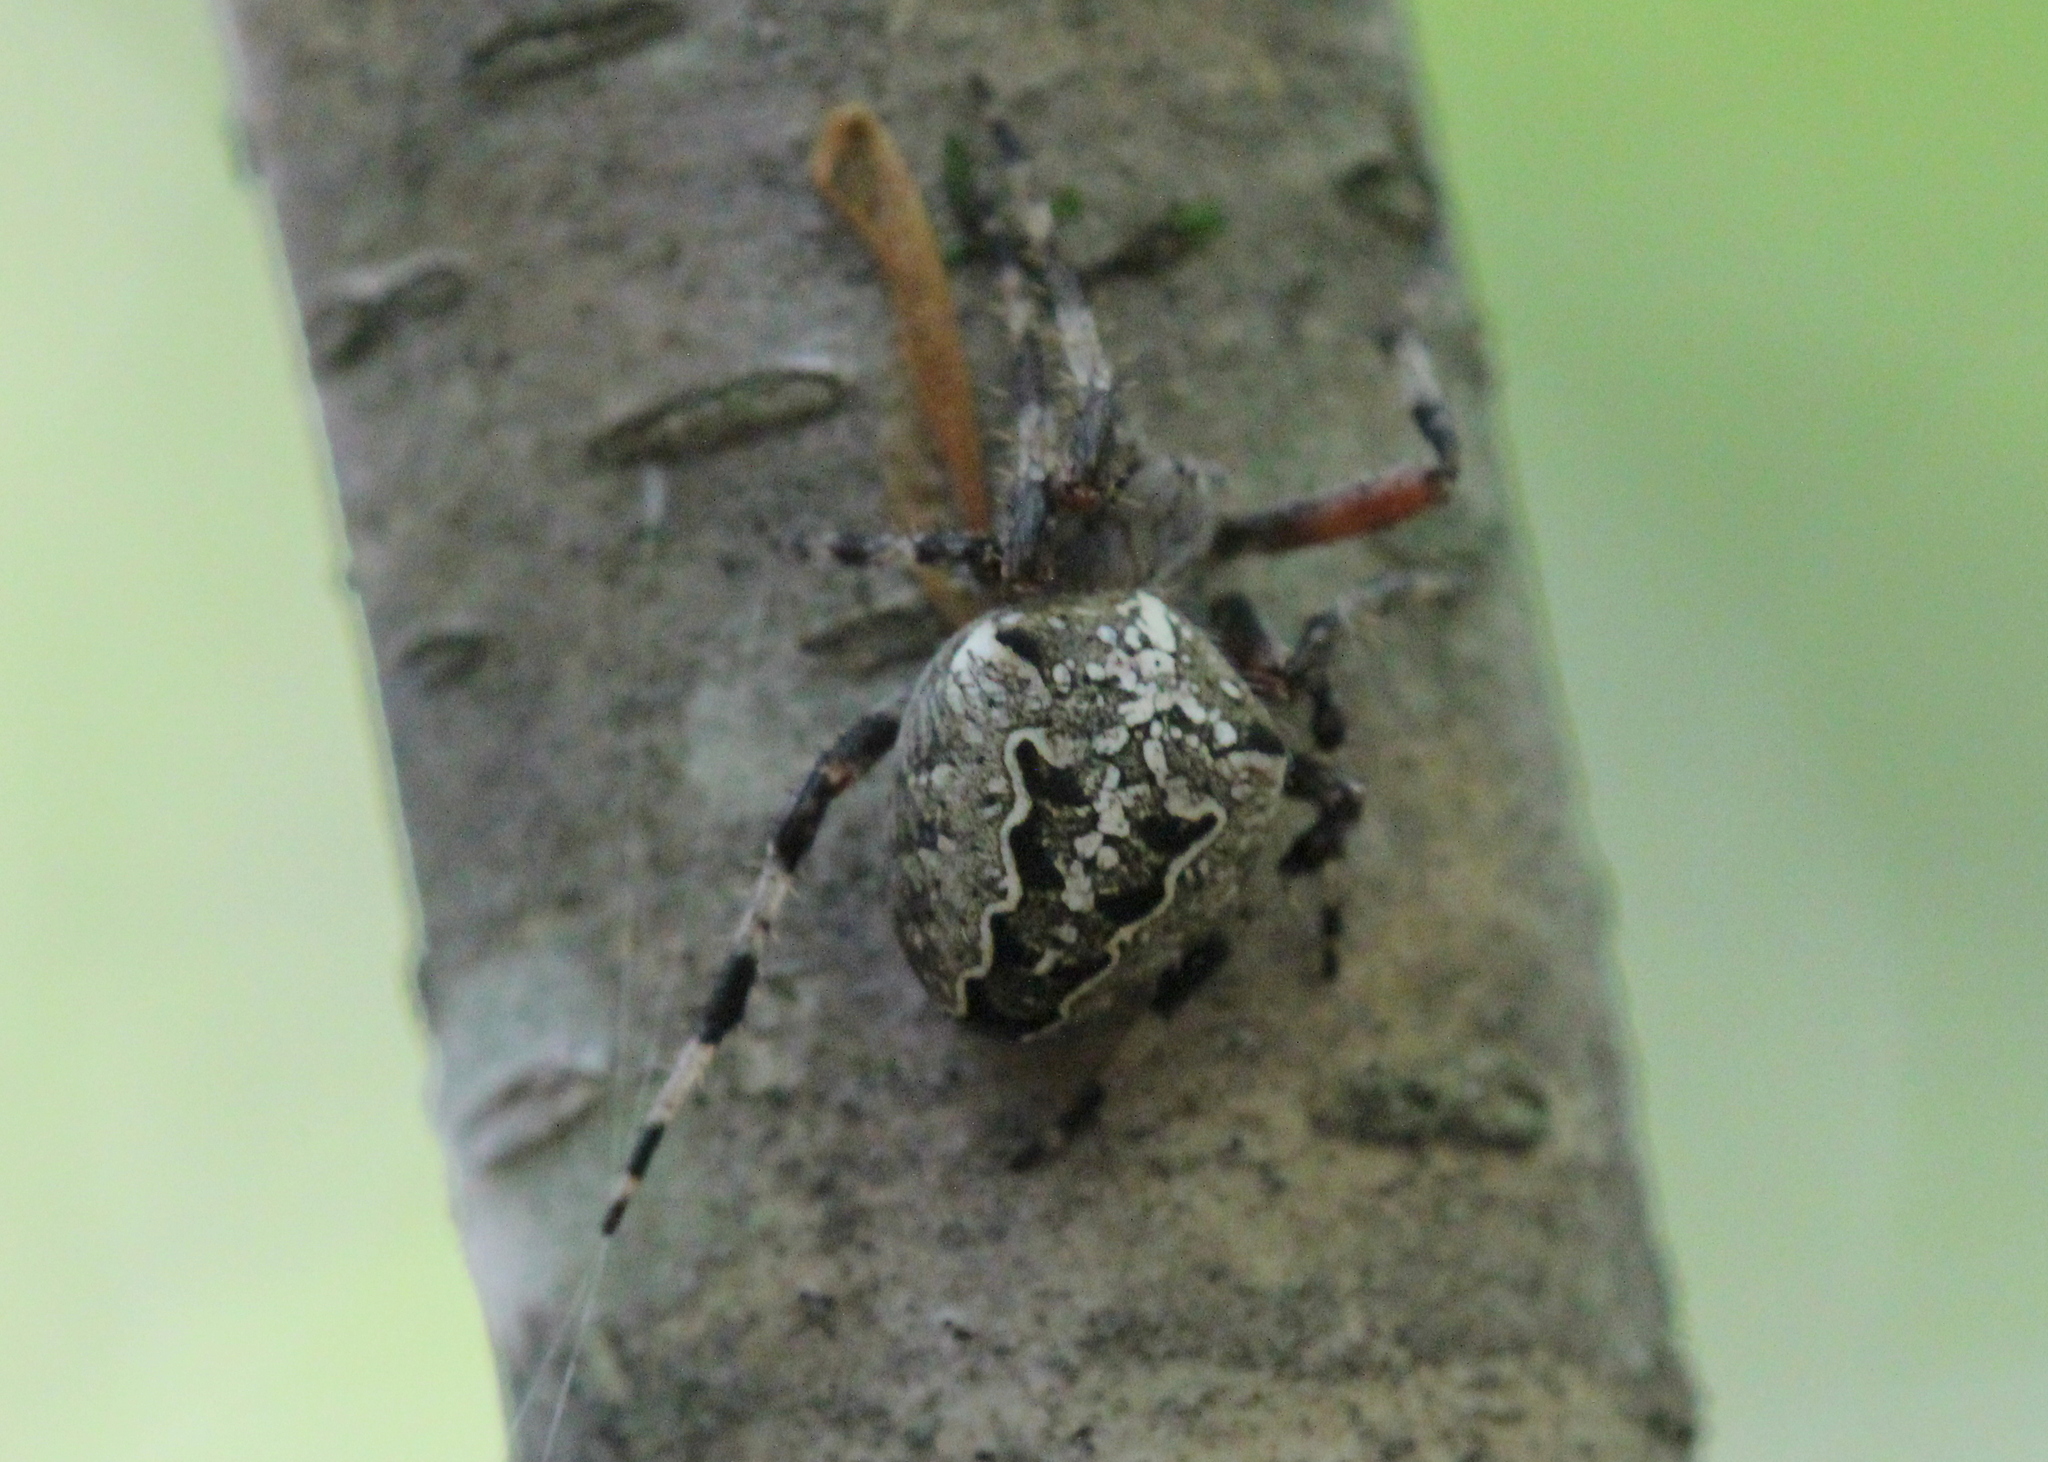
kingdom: Animalia
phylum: Arthropoda
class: Arachnida
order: Araneae
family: Araneidae
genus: Araneus
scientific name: Araneus nordmanni
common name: Nordmann's orbweaver
